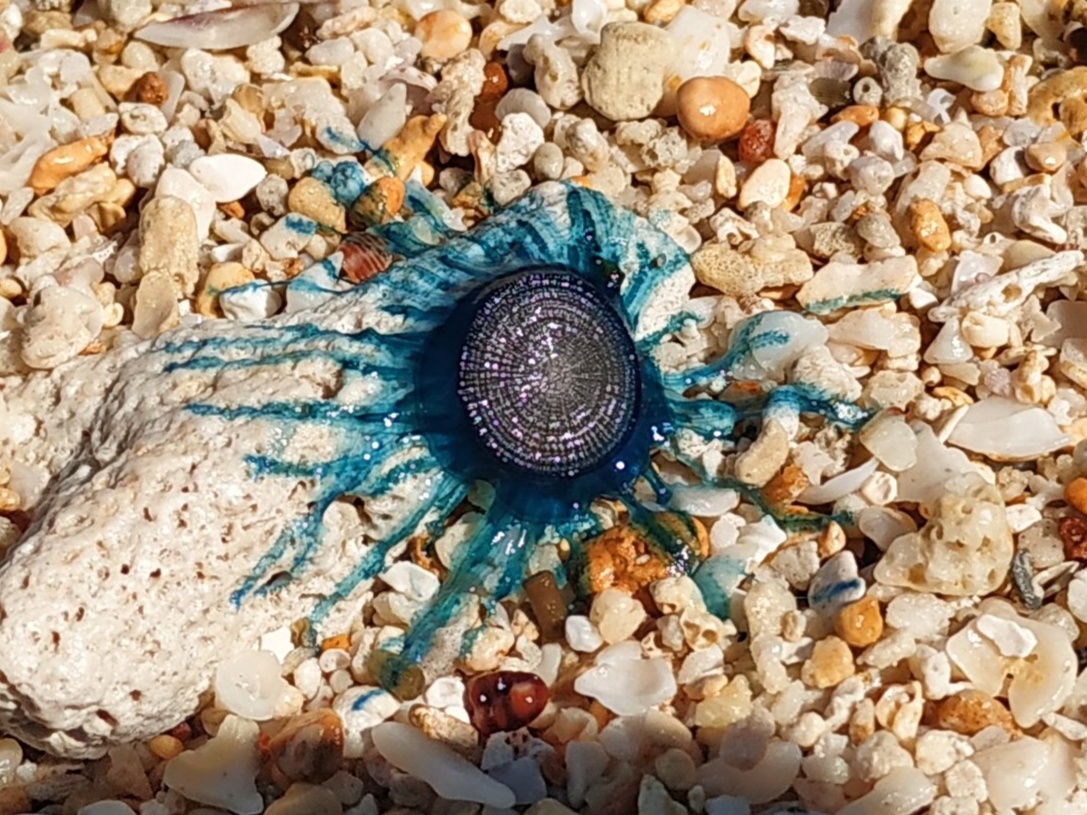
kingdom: Animalia
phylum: Cnidaria
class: Hydrozoa
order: Anthoathecata
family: Porpitidae
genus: Porpita
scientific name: Porpita porpita
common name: Blue button
